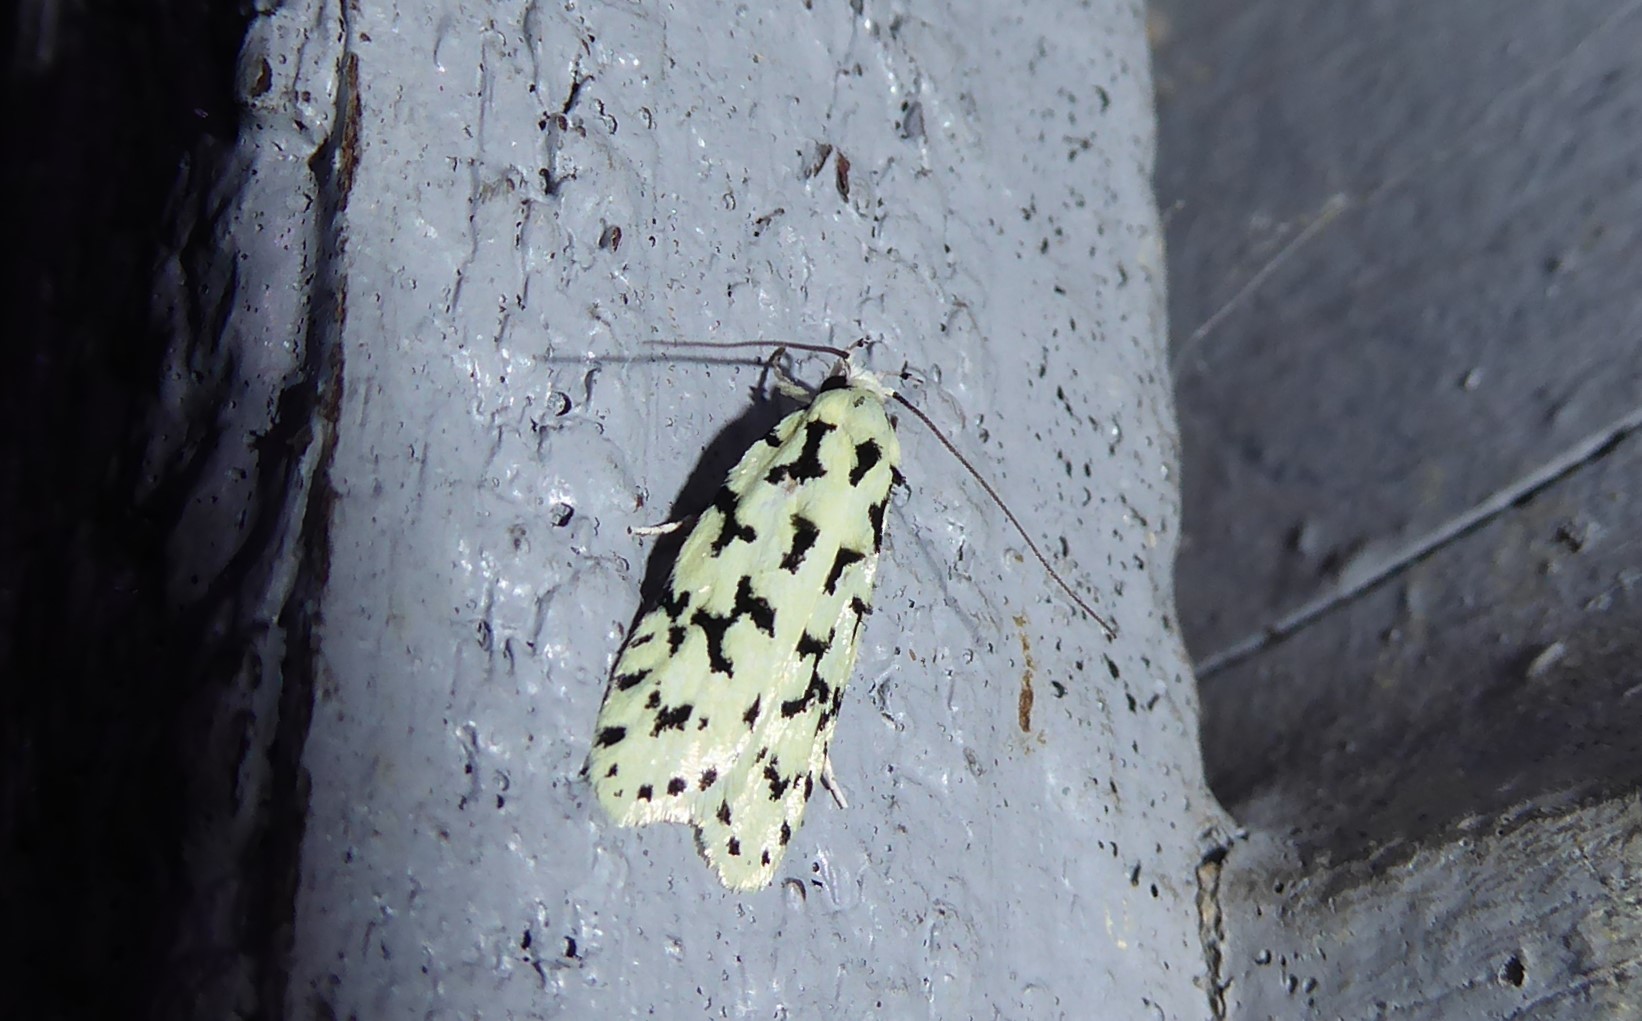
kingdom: Animalia
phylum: Arthropoda
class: Insecta
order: Lepidoptera
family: Oecophoridae
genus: Izatha
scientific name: Izatha huttoni
